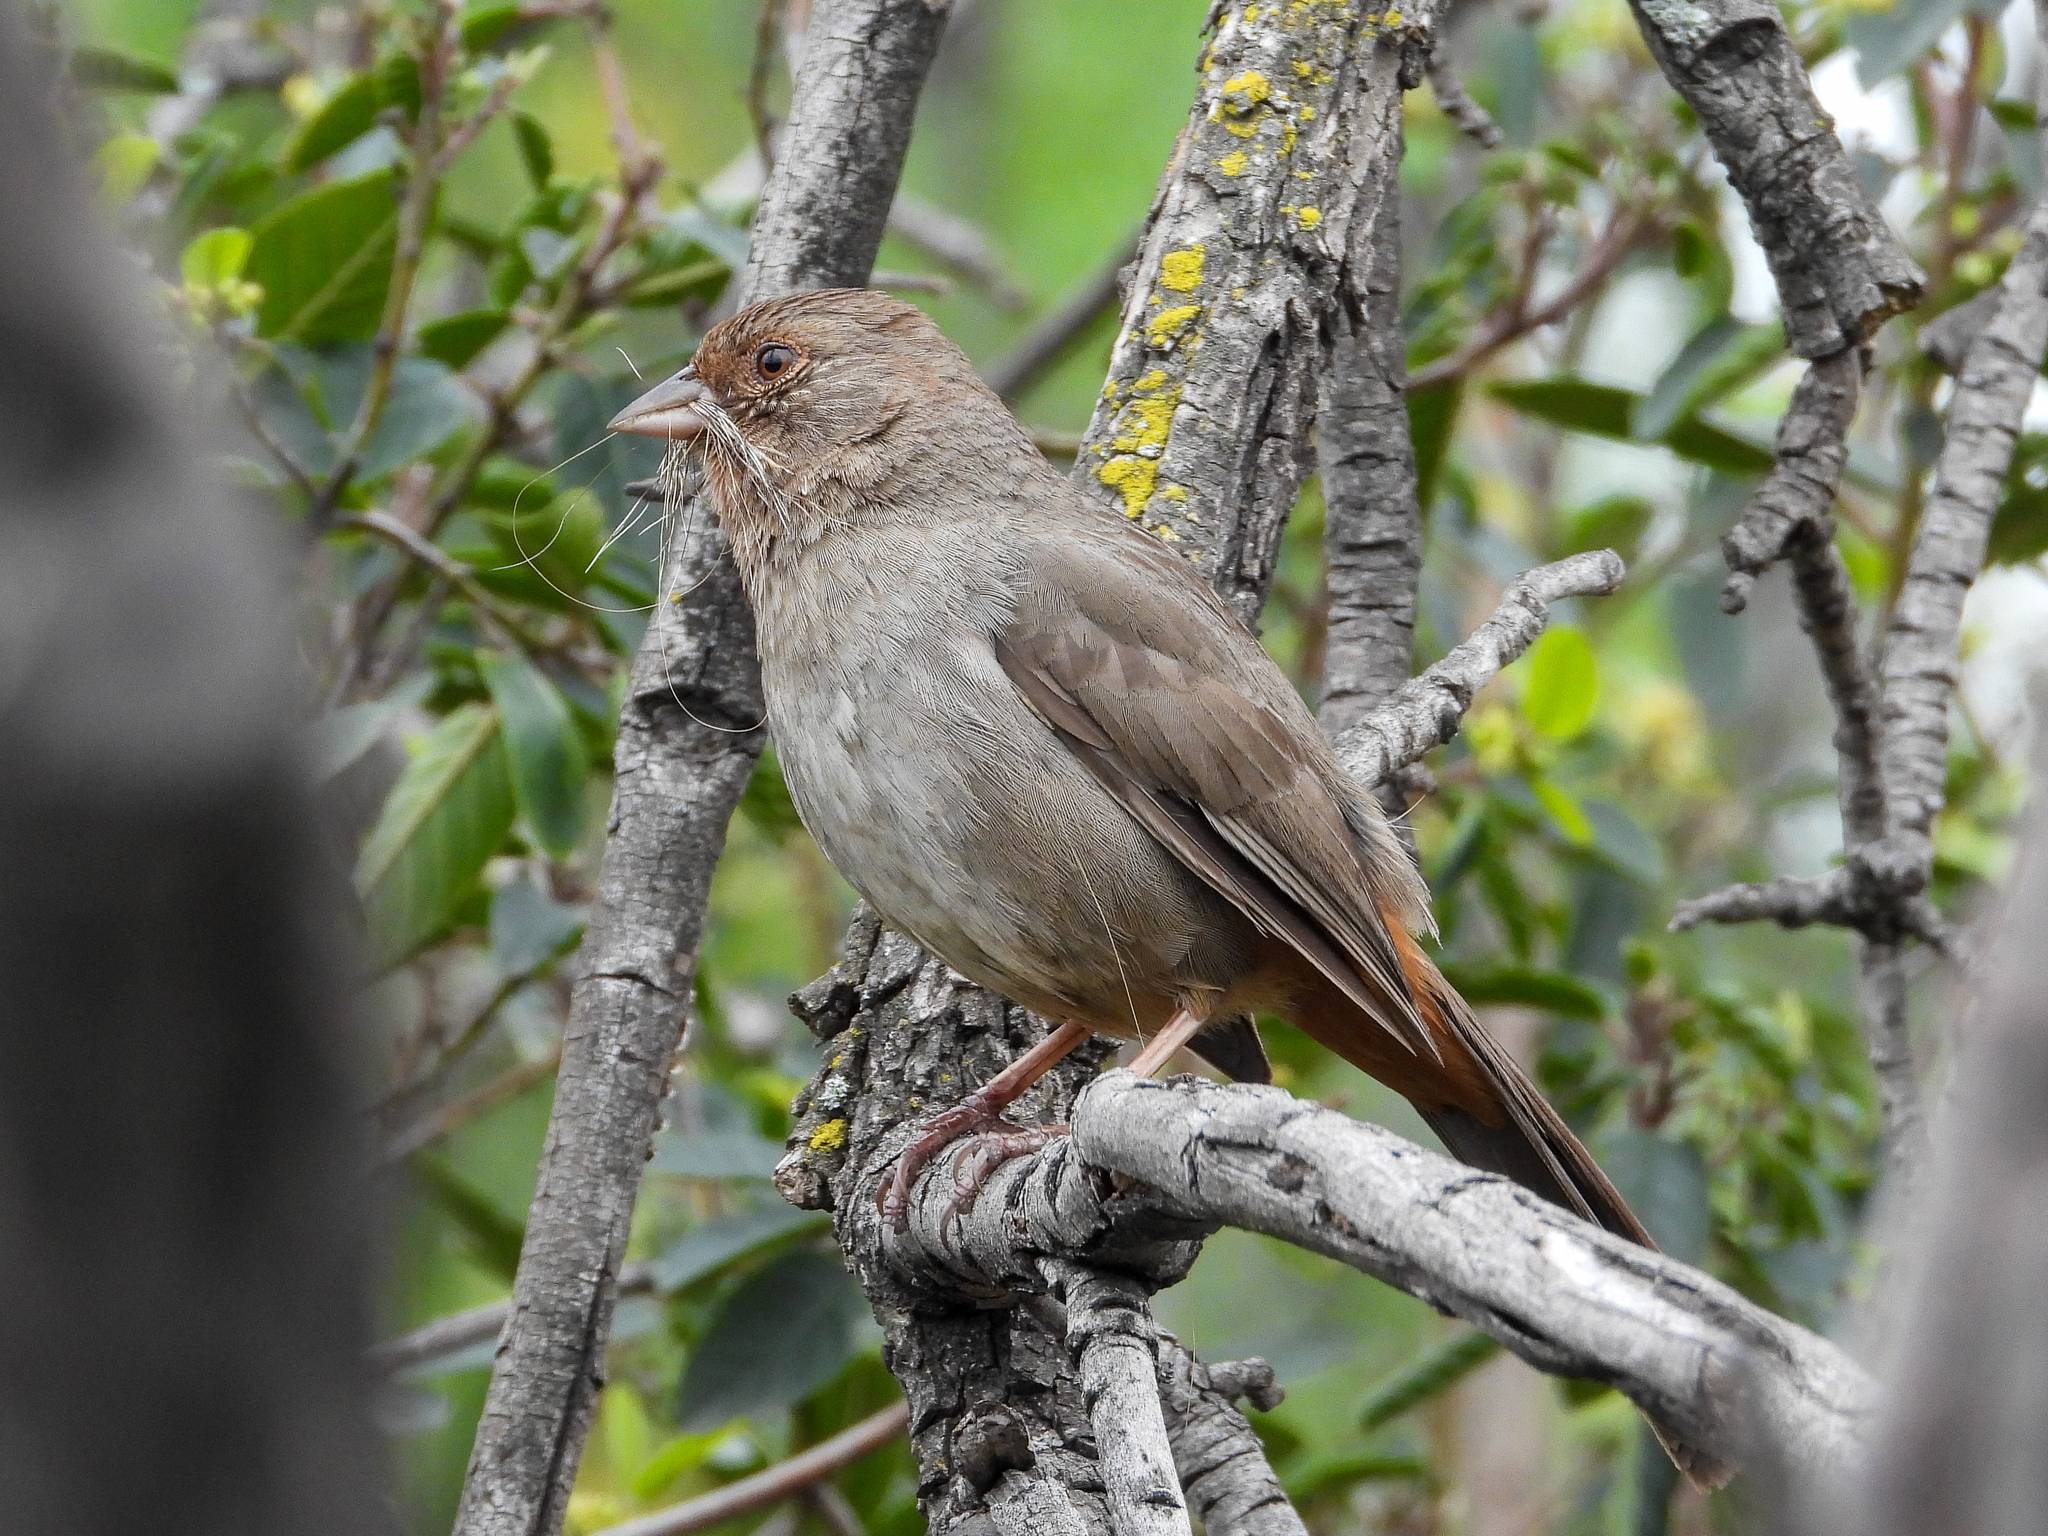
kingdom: Animalia
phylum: Chordata
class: Aves
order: Passeriformes
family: Passerellidae
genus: Melozone
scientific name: Melozone crissalis
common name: California towhee
